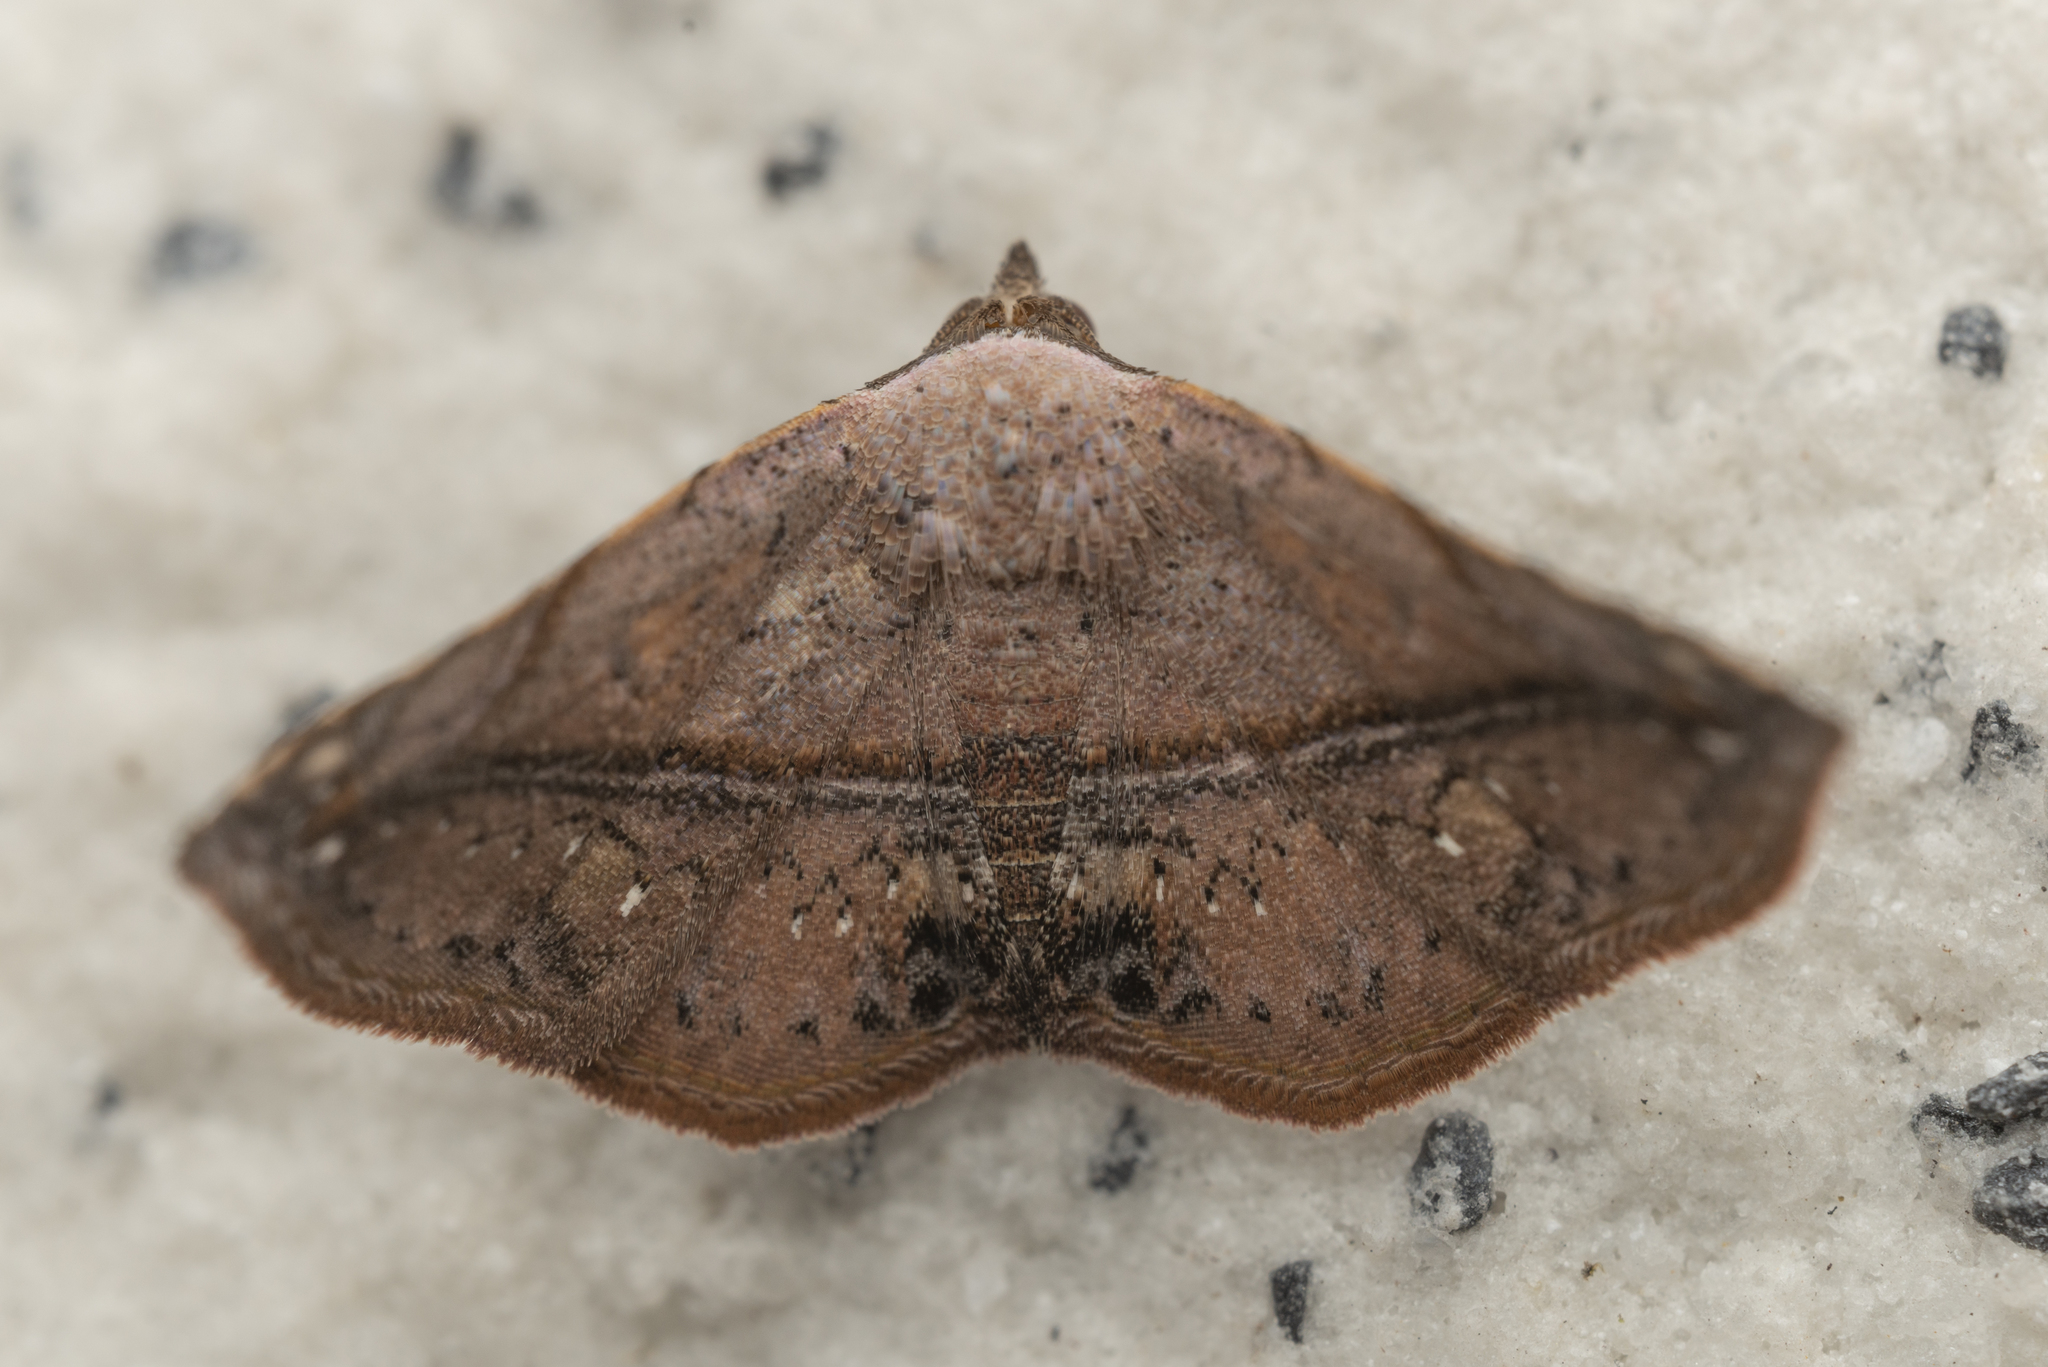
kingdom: Animalia
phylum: Arthropoda
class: Insecta
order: Lepidoptera
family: Noctuidae
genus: Eublemma
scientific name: Eublemma abrupta
